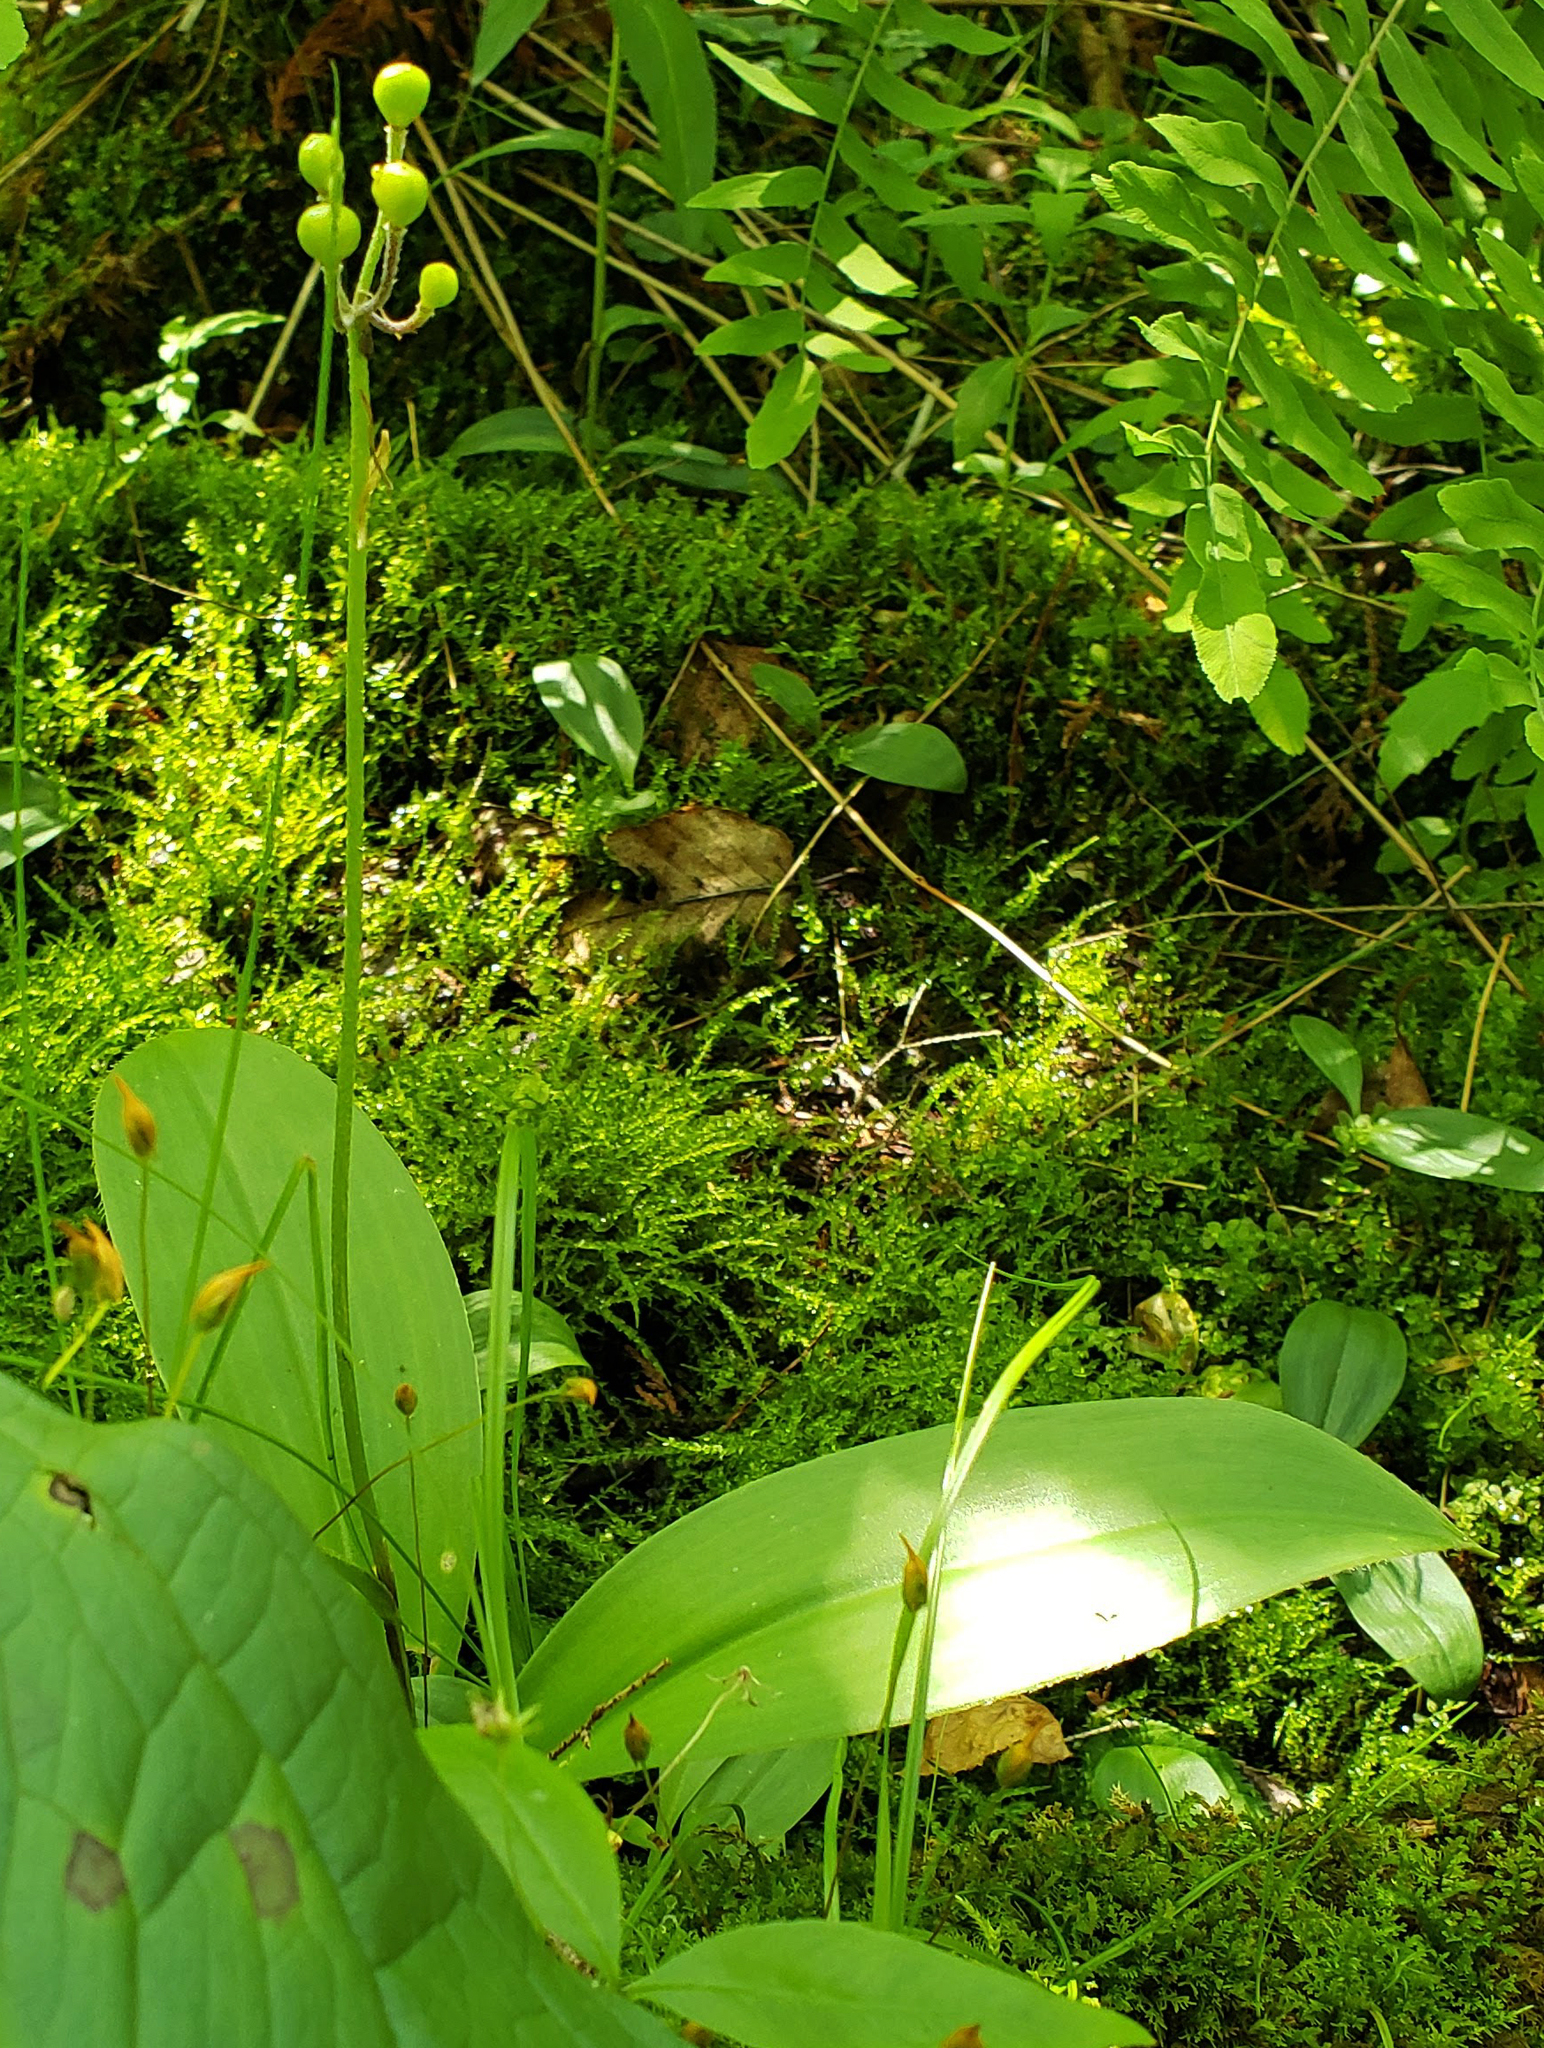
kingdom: Plantae
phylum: Tracheophyta
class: Liliopsida
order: Liliales
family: Liliaceae
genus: Clintonia
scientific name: Clintonia borealis
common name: Yellow clintonia
